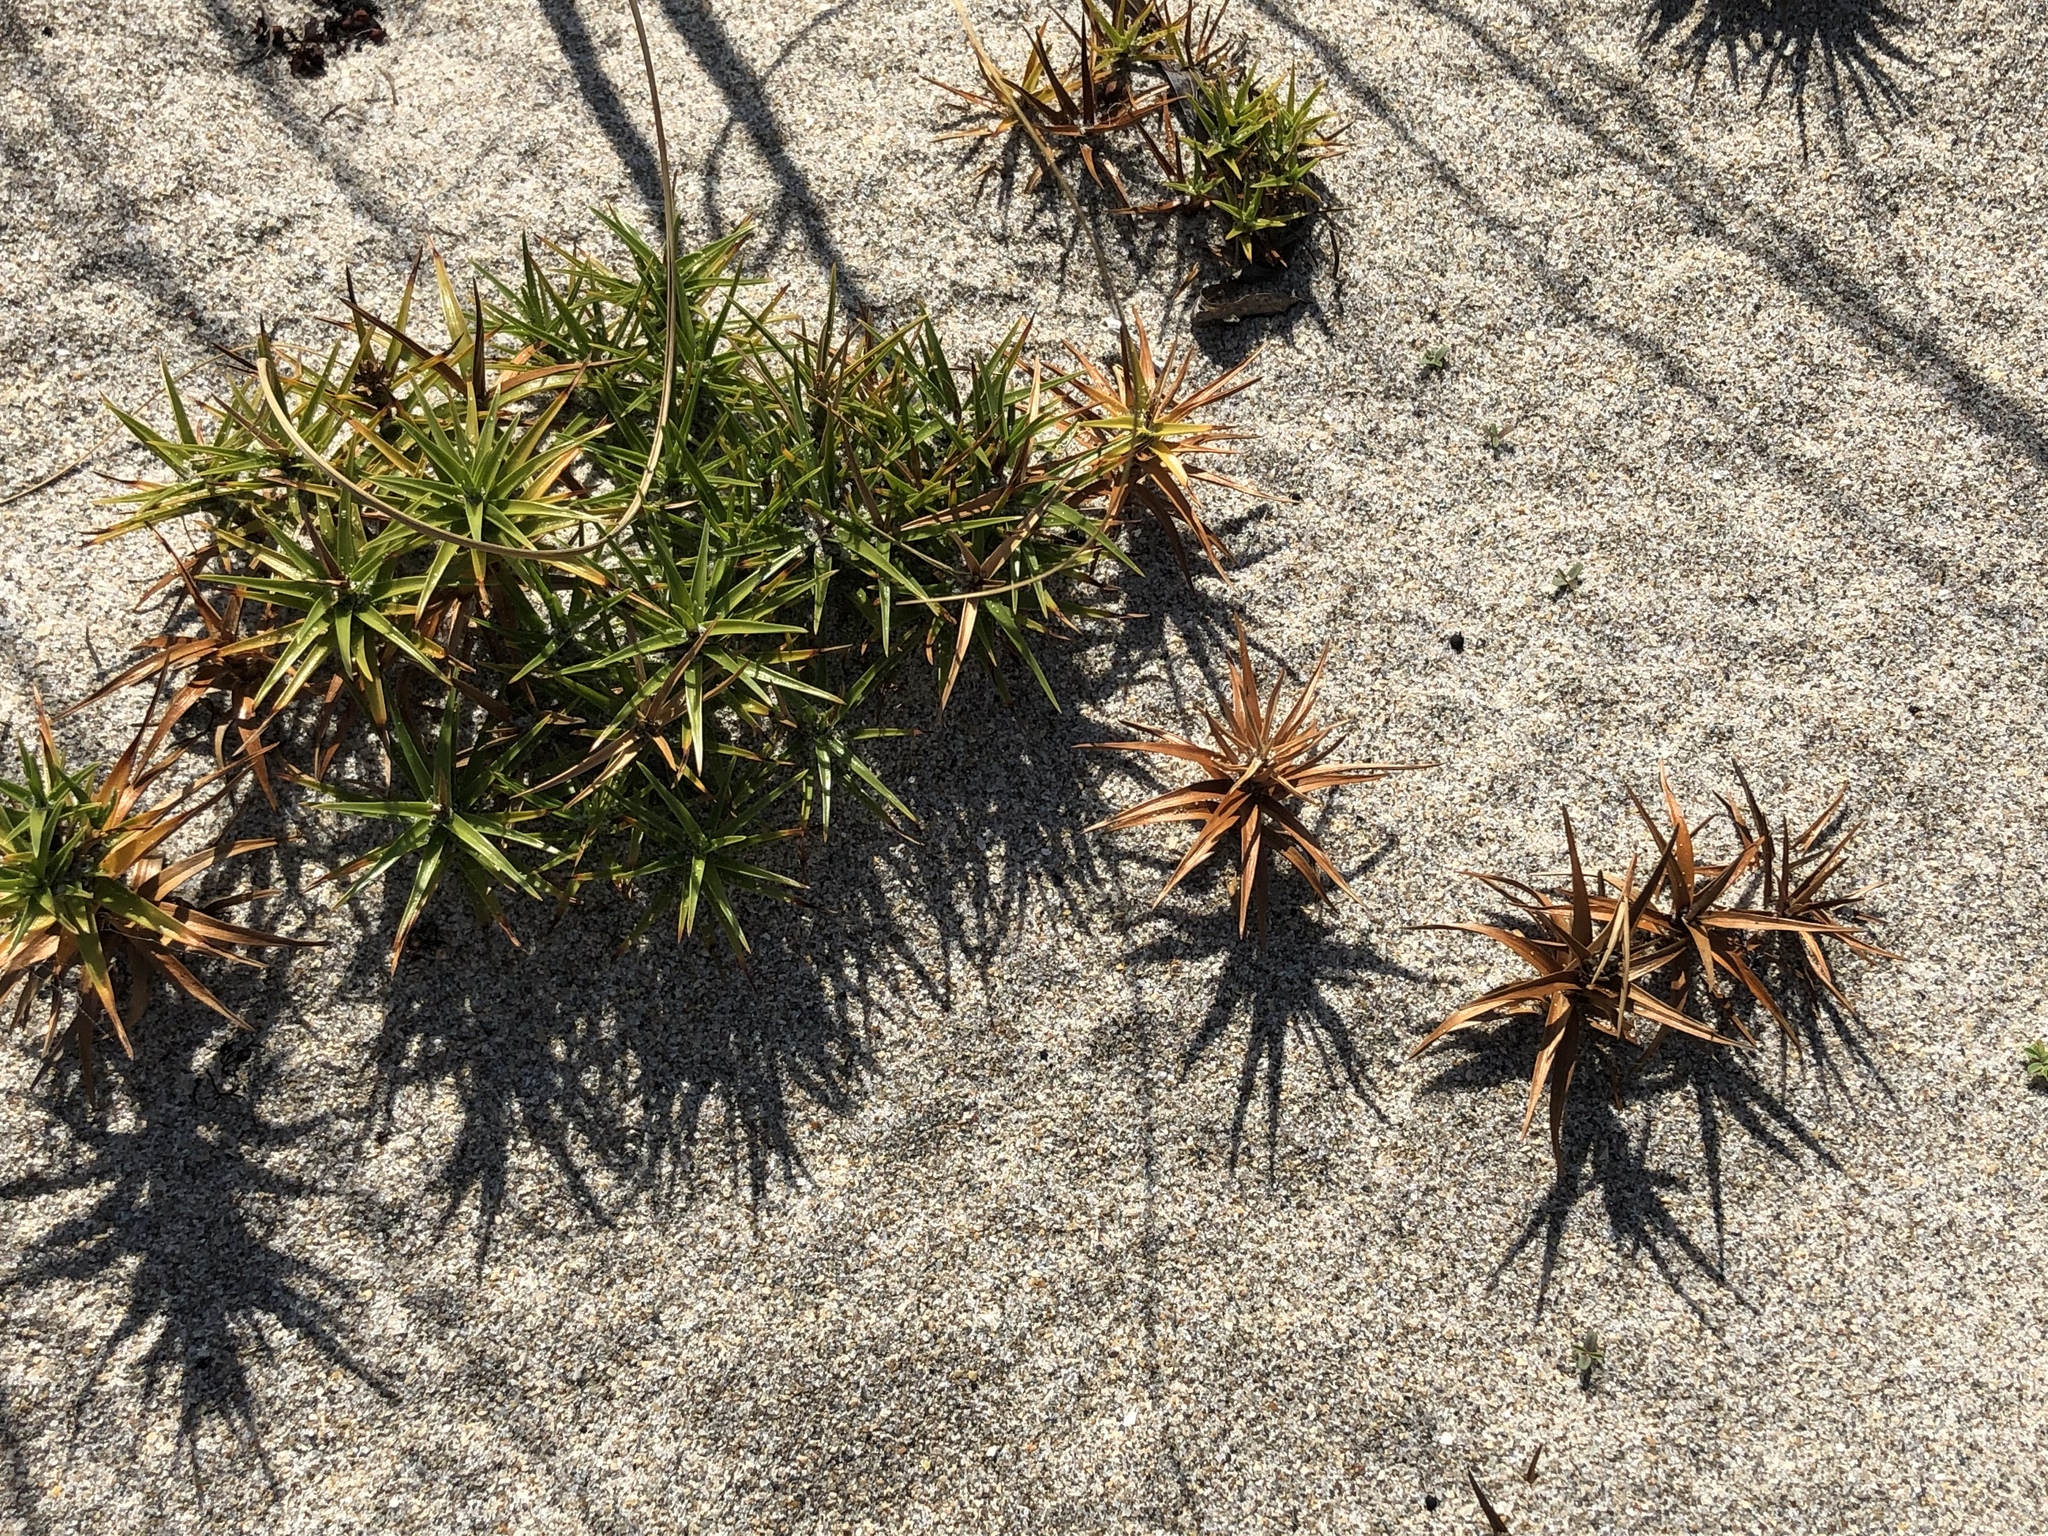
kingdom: Plantae
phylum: Tracheophyta
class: Liliopsida
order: Poales
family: Cyperaceae
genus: Cyperus
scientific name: Cyperus pedunculatus
